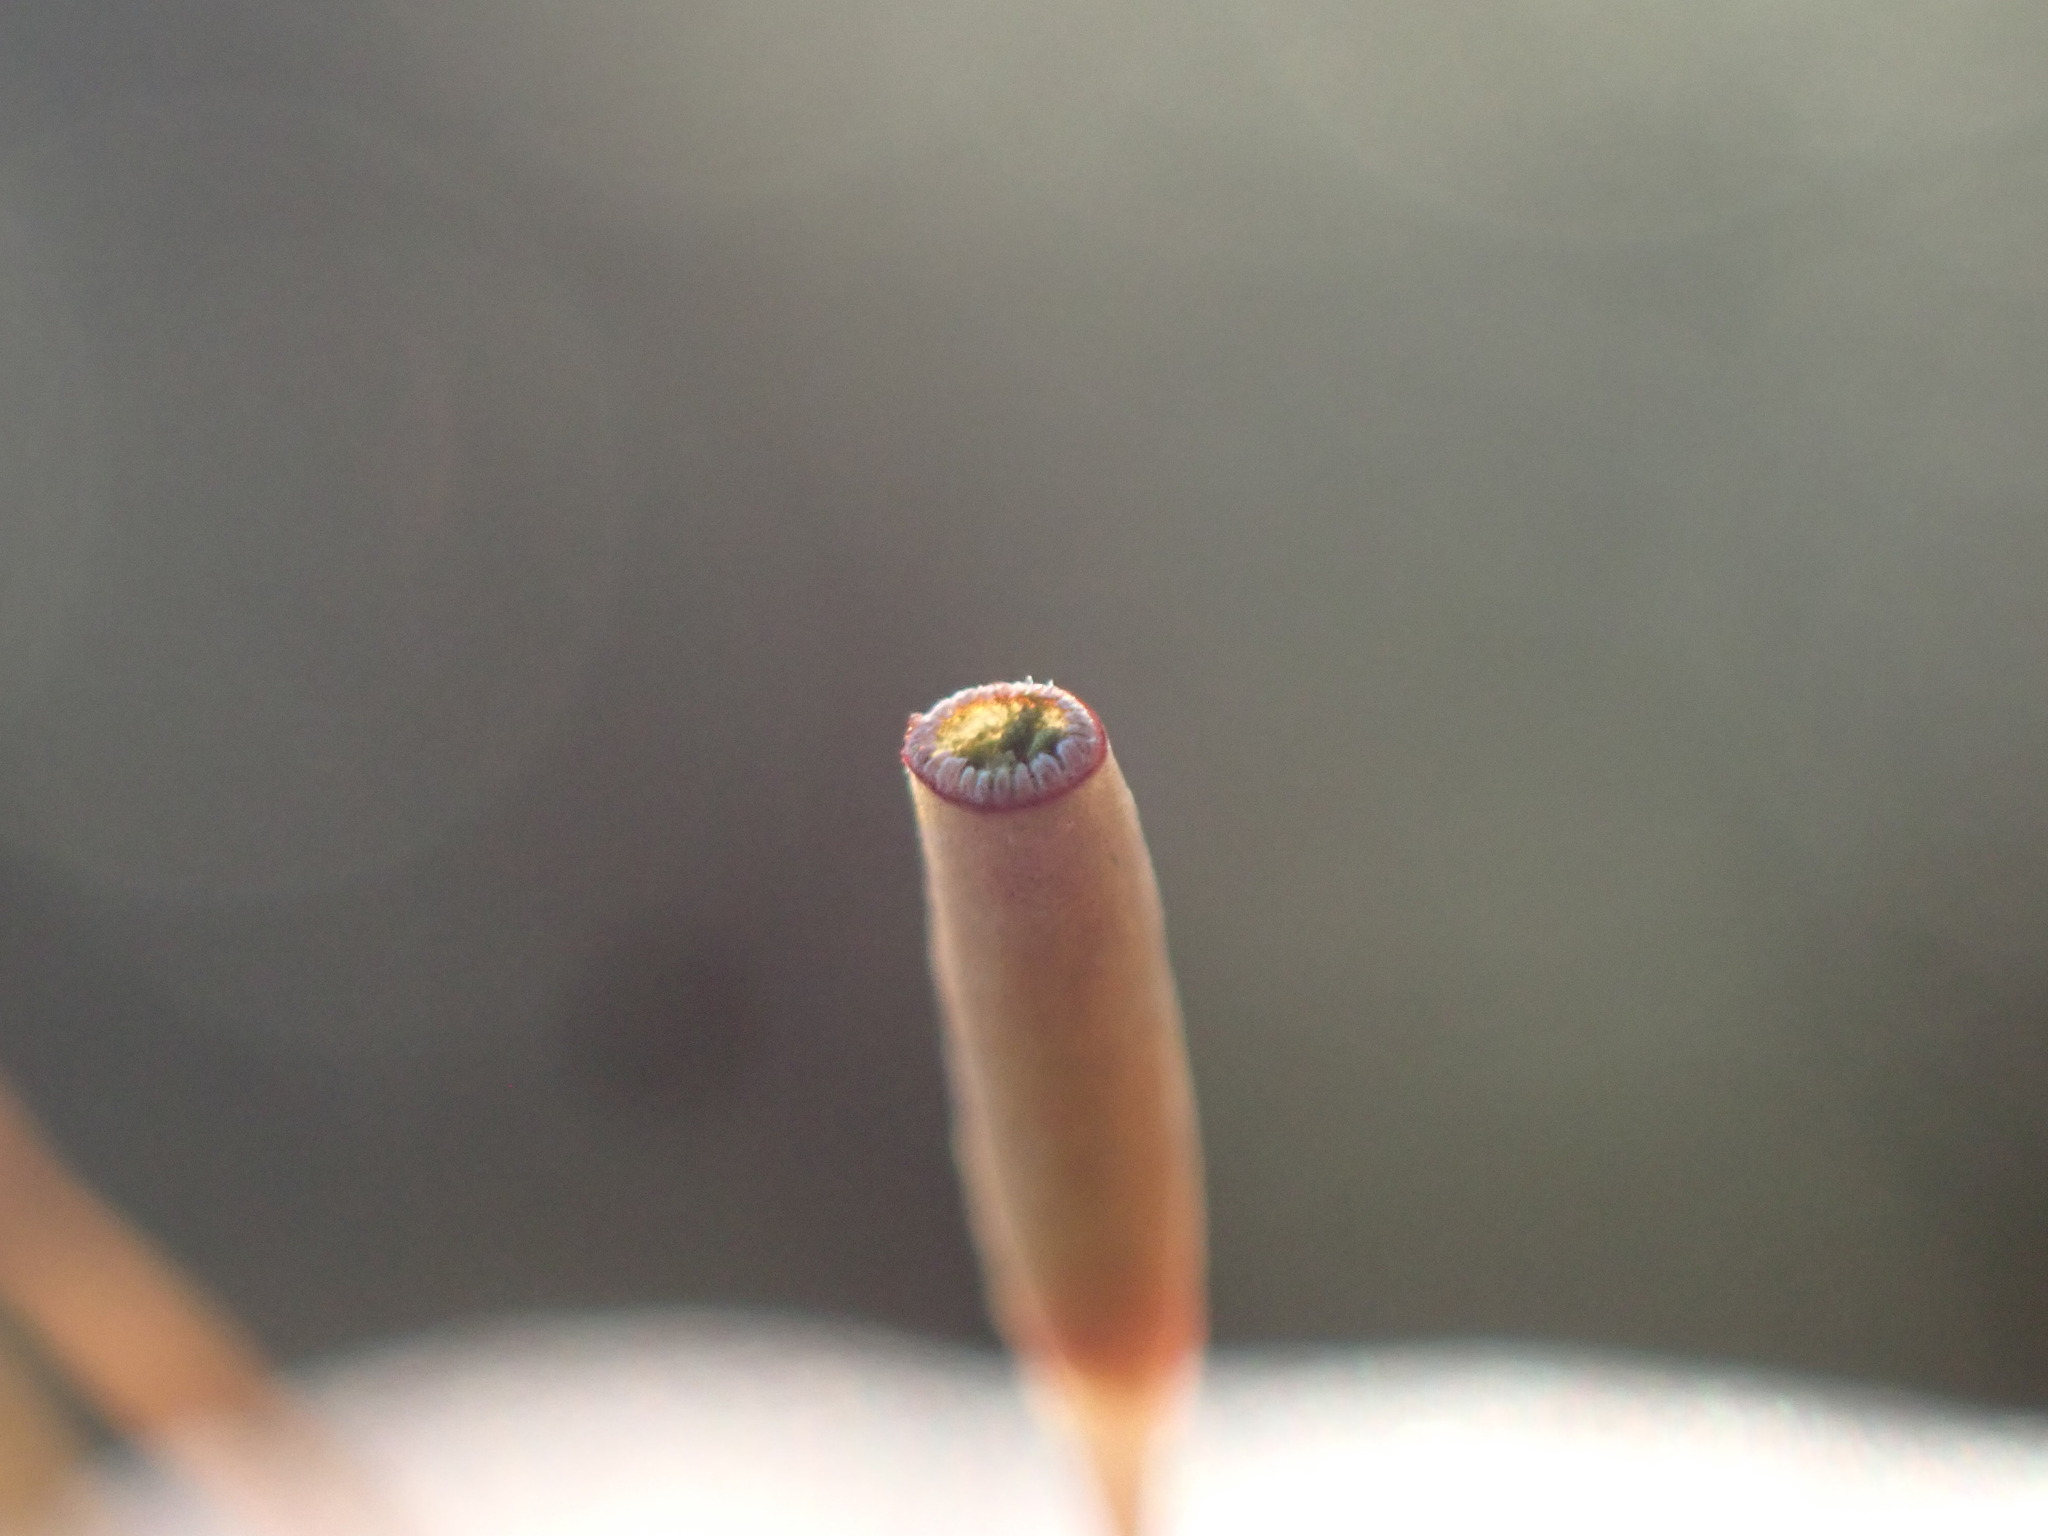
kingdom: Plantae
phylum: Bryophyta
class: Polytrichopsida
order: Polytrichales
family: Polytrichaceae
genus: Pogonatum
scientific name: Pogonatum spinulosum
